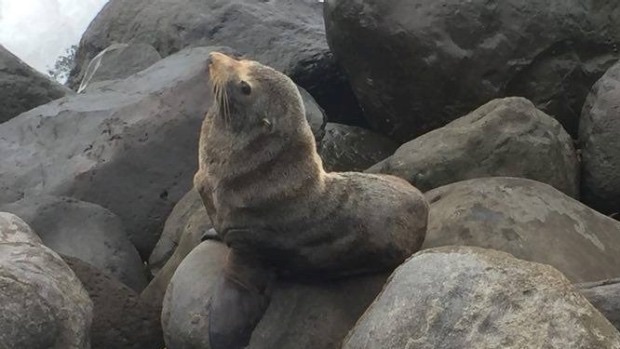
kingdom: Animalia
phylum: Chordata
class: Mammalia
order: Carnivora
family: Otariidae
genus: Arctocephalus
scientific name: Arctocephalus forsteri
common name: New zealand fur seal
